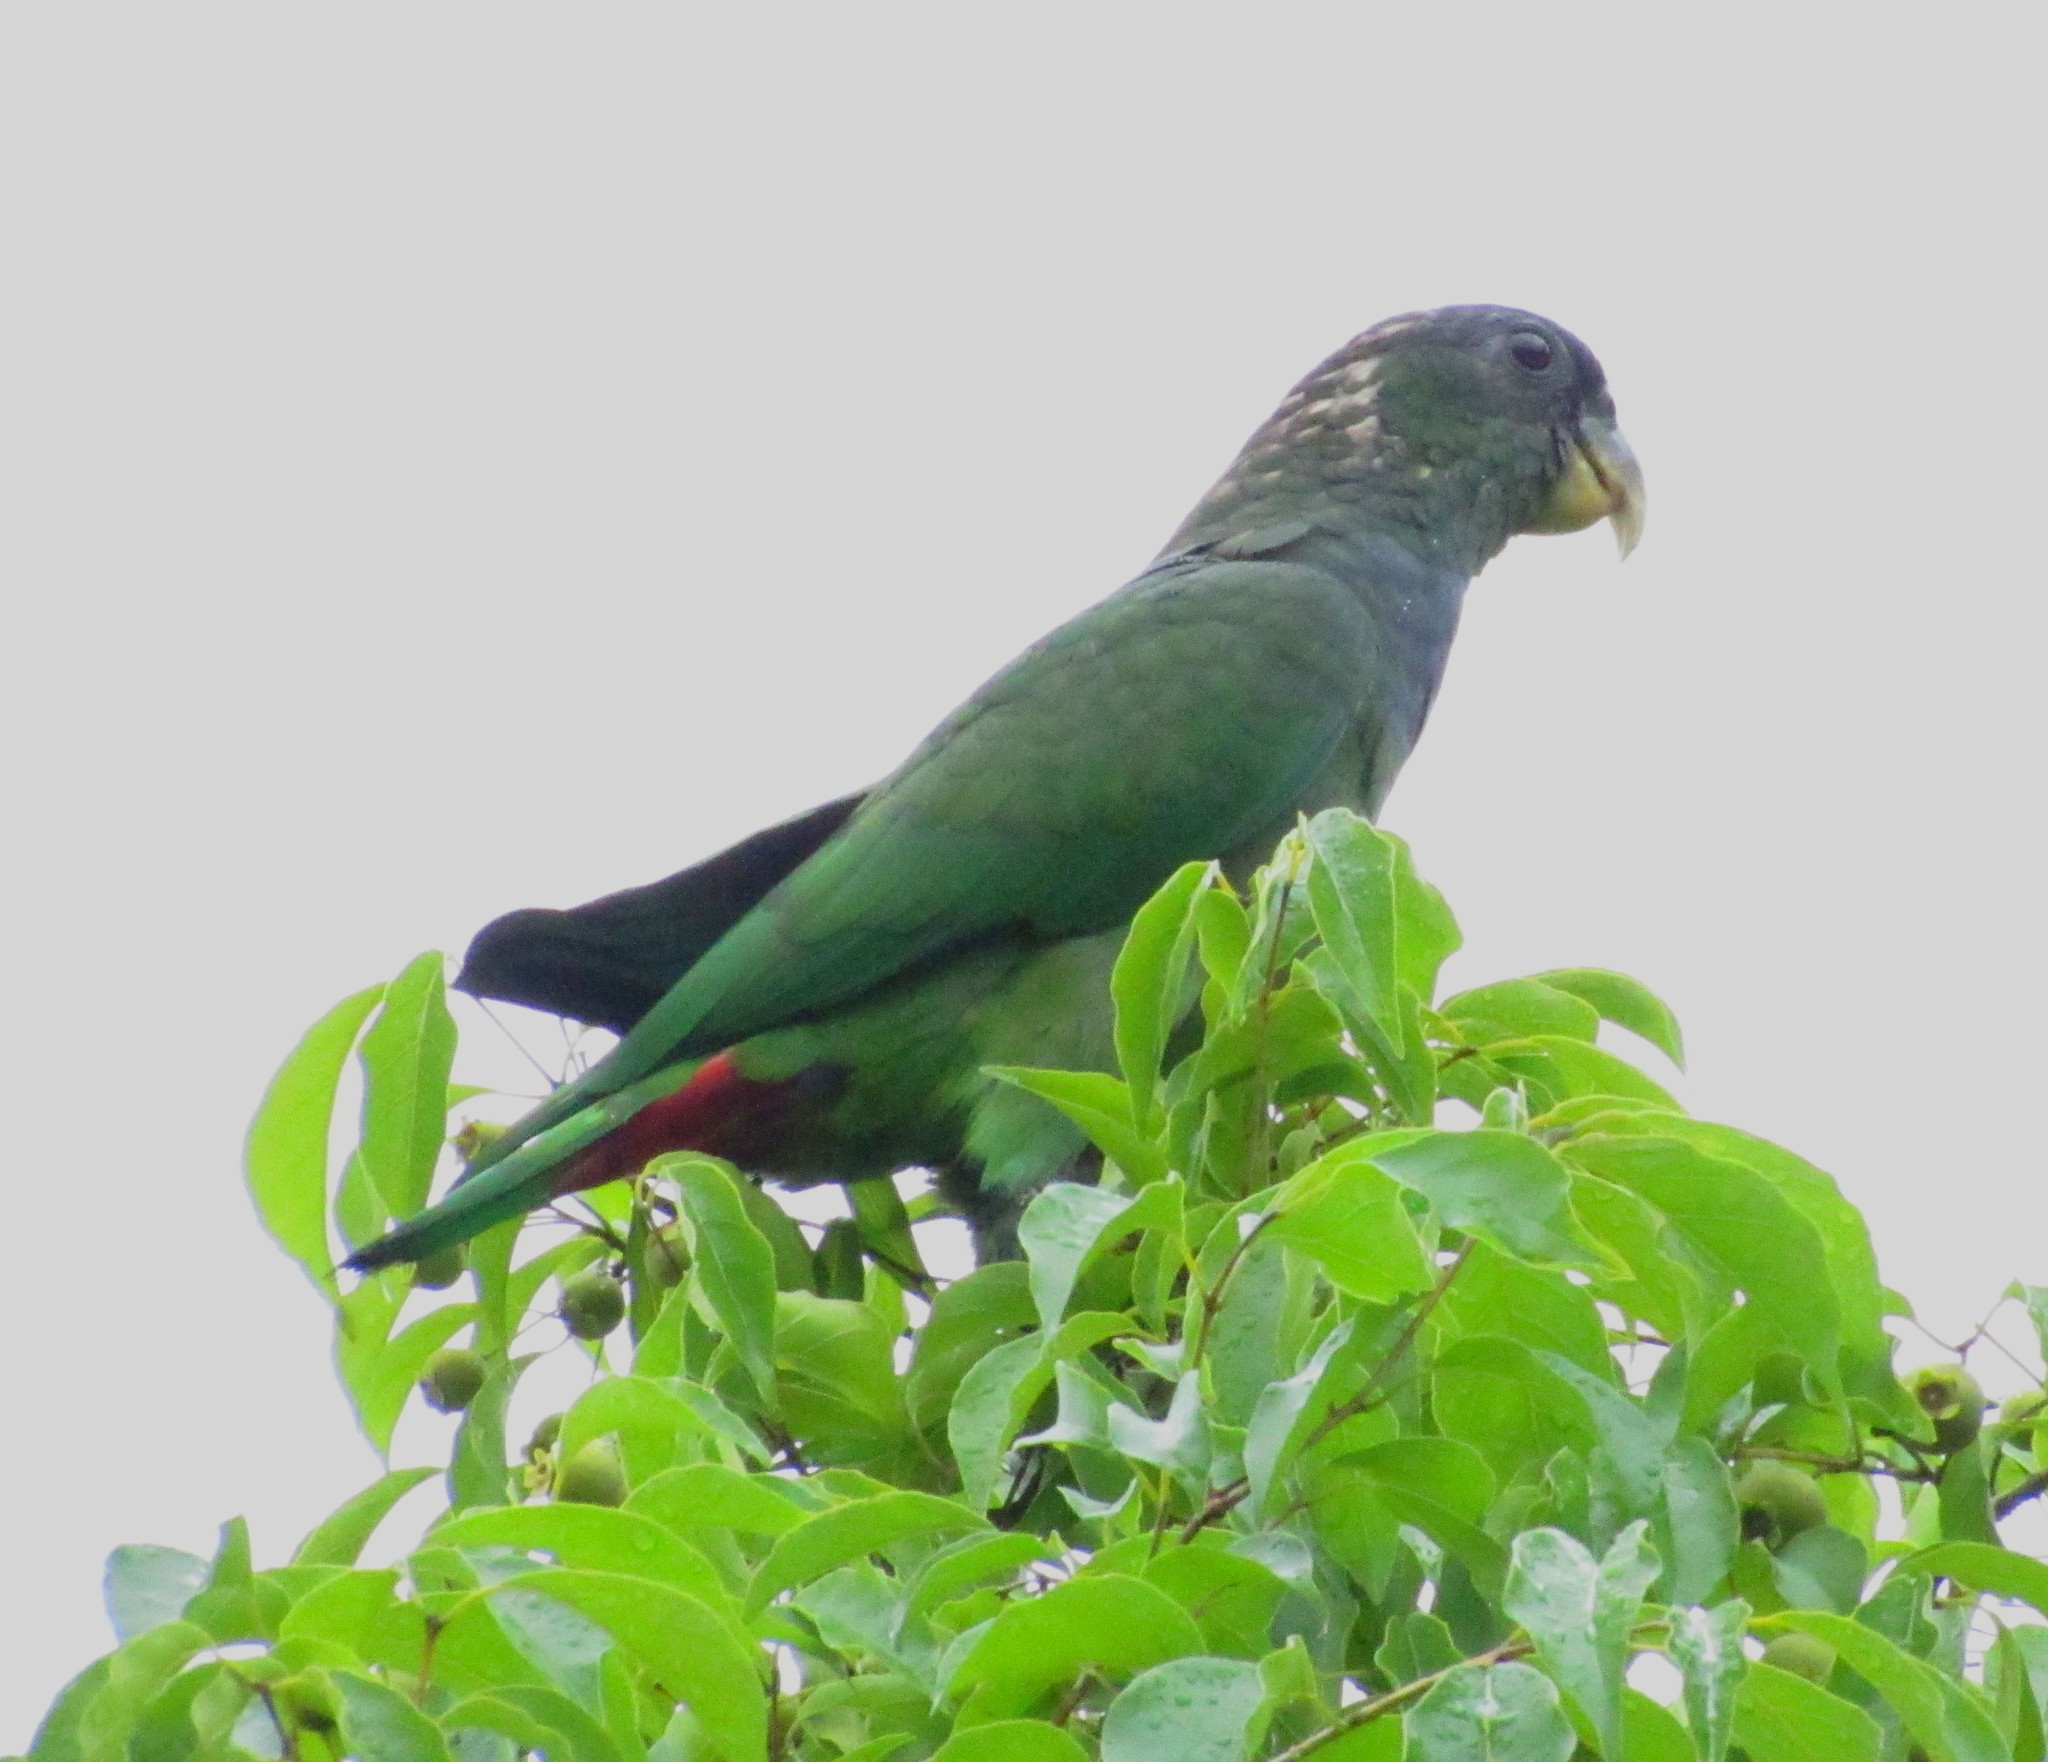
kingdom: Animalia
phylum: Chordata
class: Aves
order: Psittaciformes
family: Psittacidae
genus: Pionus
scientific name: Pionus maximiliani
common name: Scaly-headed parrot
